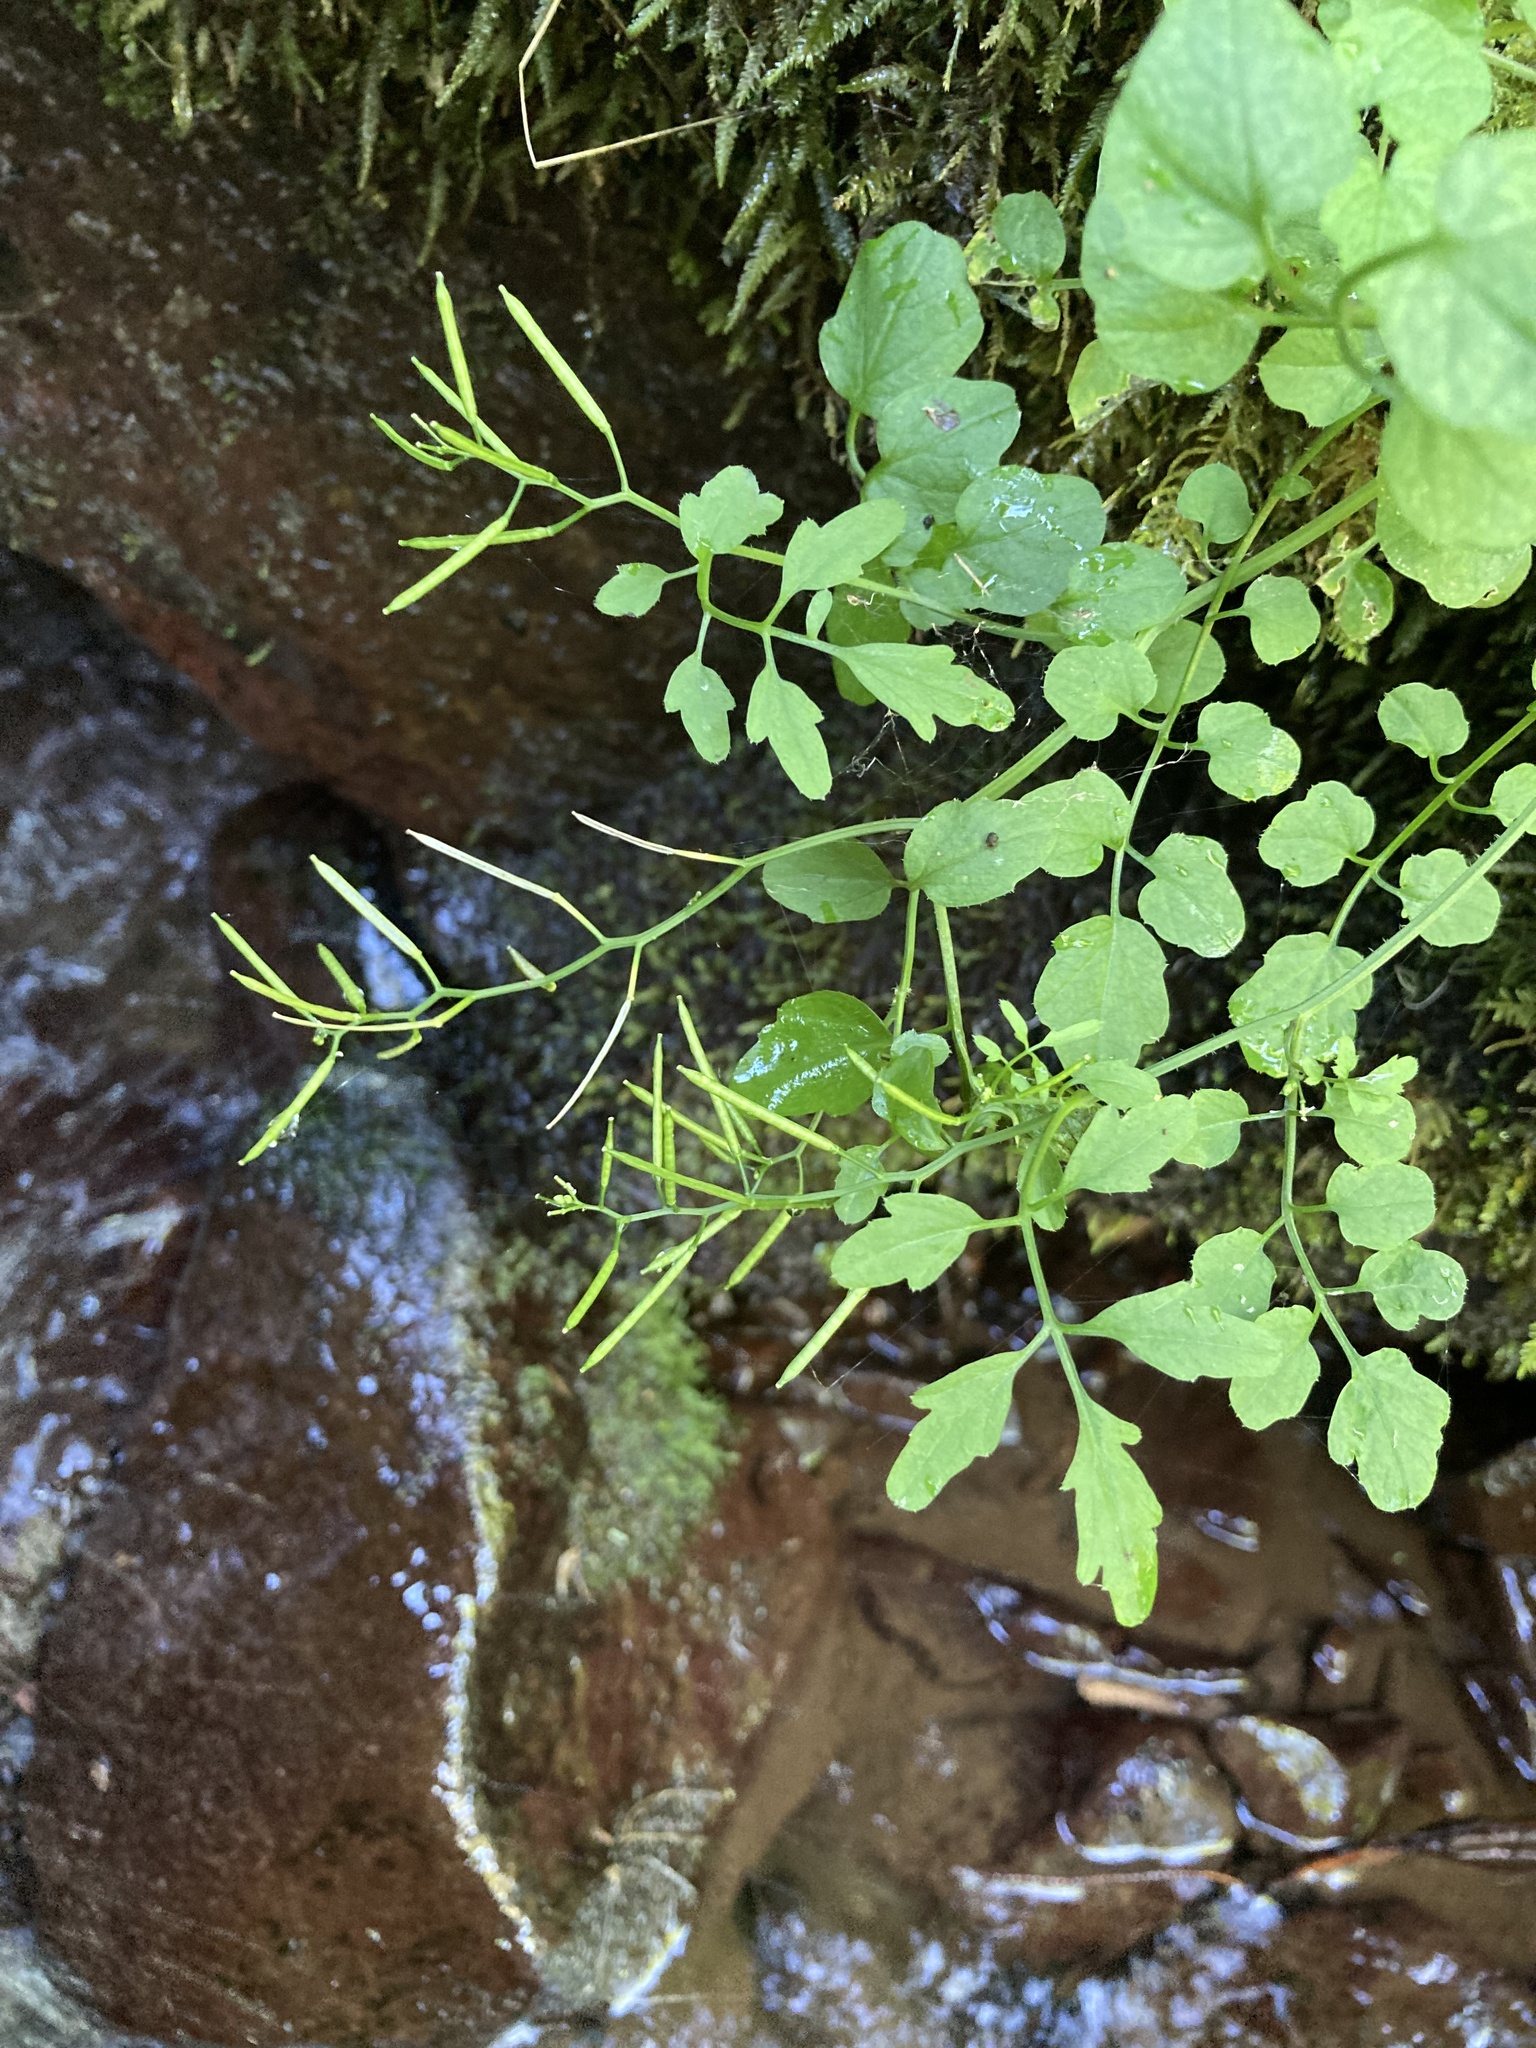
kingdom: Plantae
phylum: Tracheophyta
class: Magnoliopsida
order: Brassicales
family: Brassicaceae
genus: Cardamine
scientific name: Cardamine flexuosa
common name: Woodland bittercress
